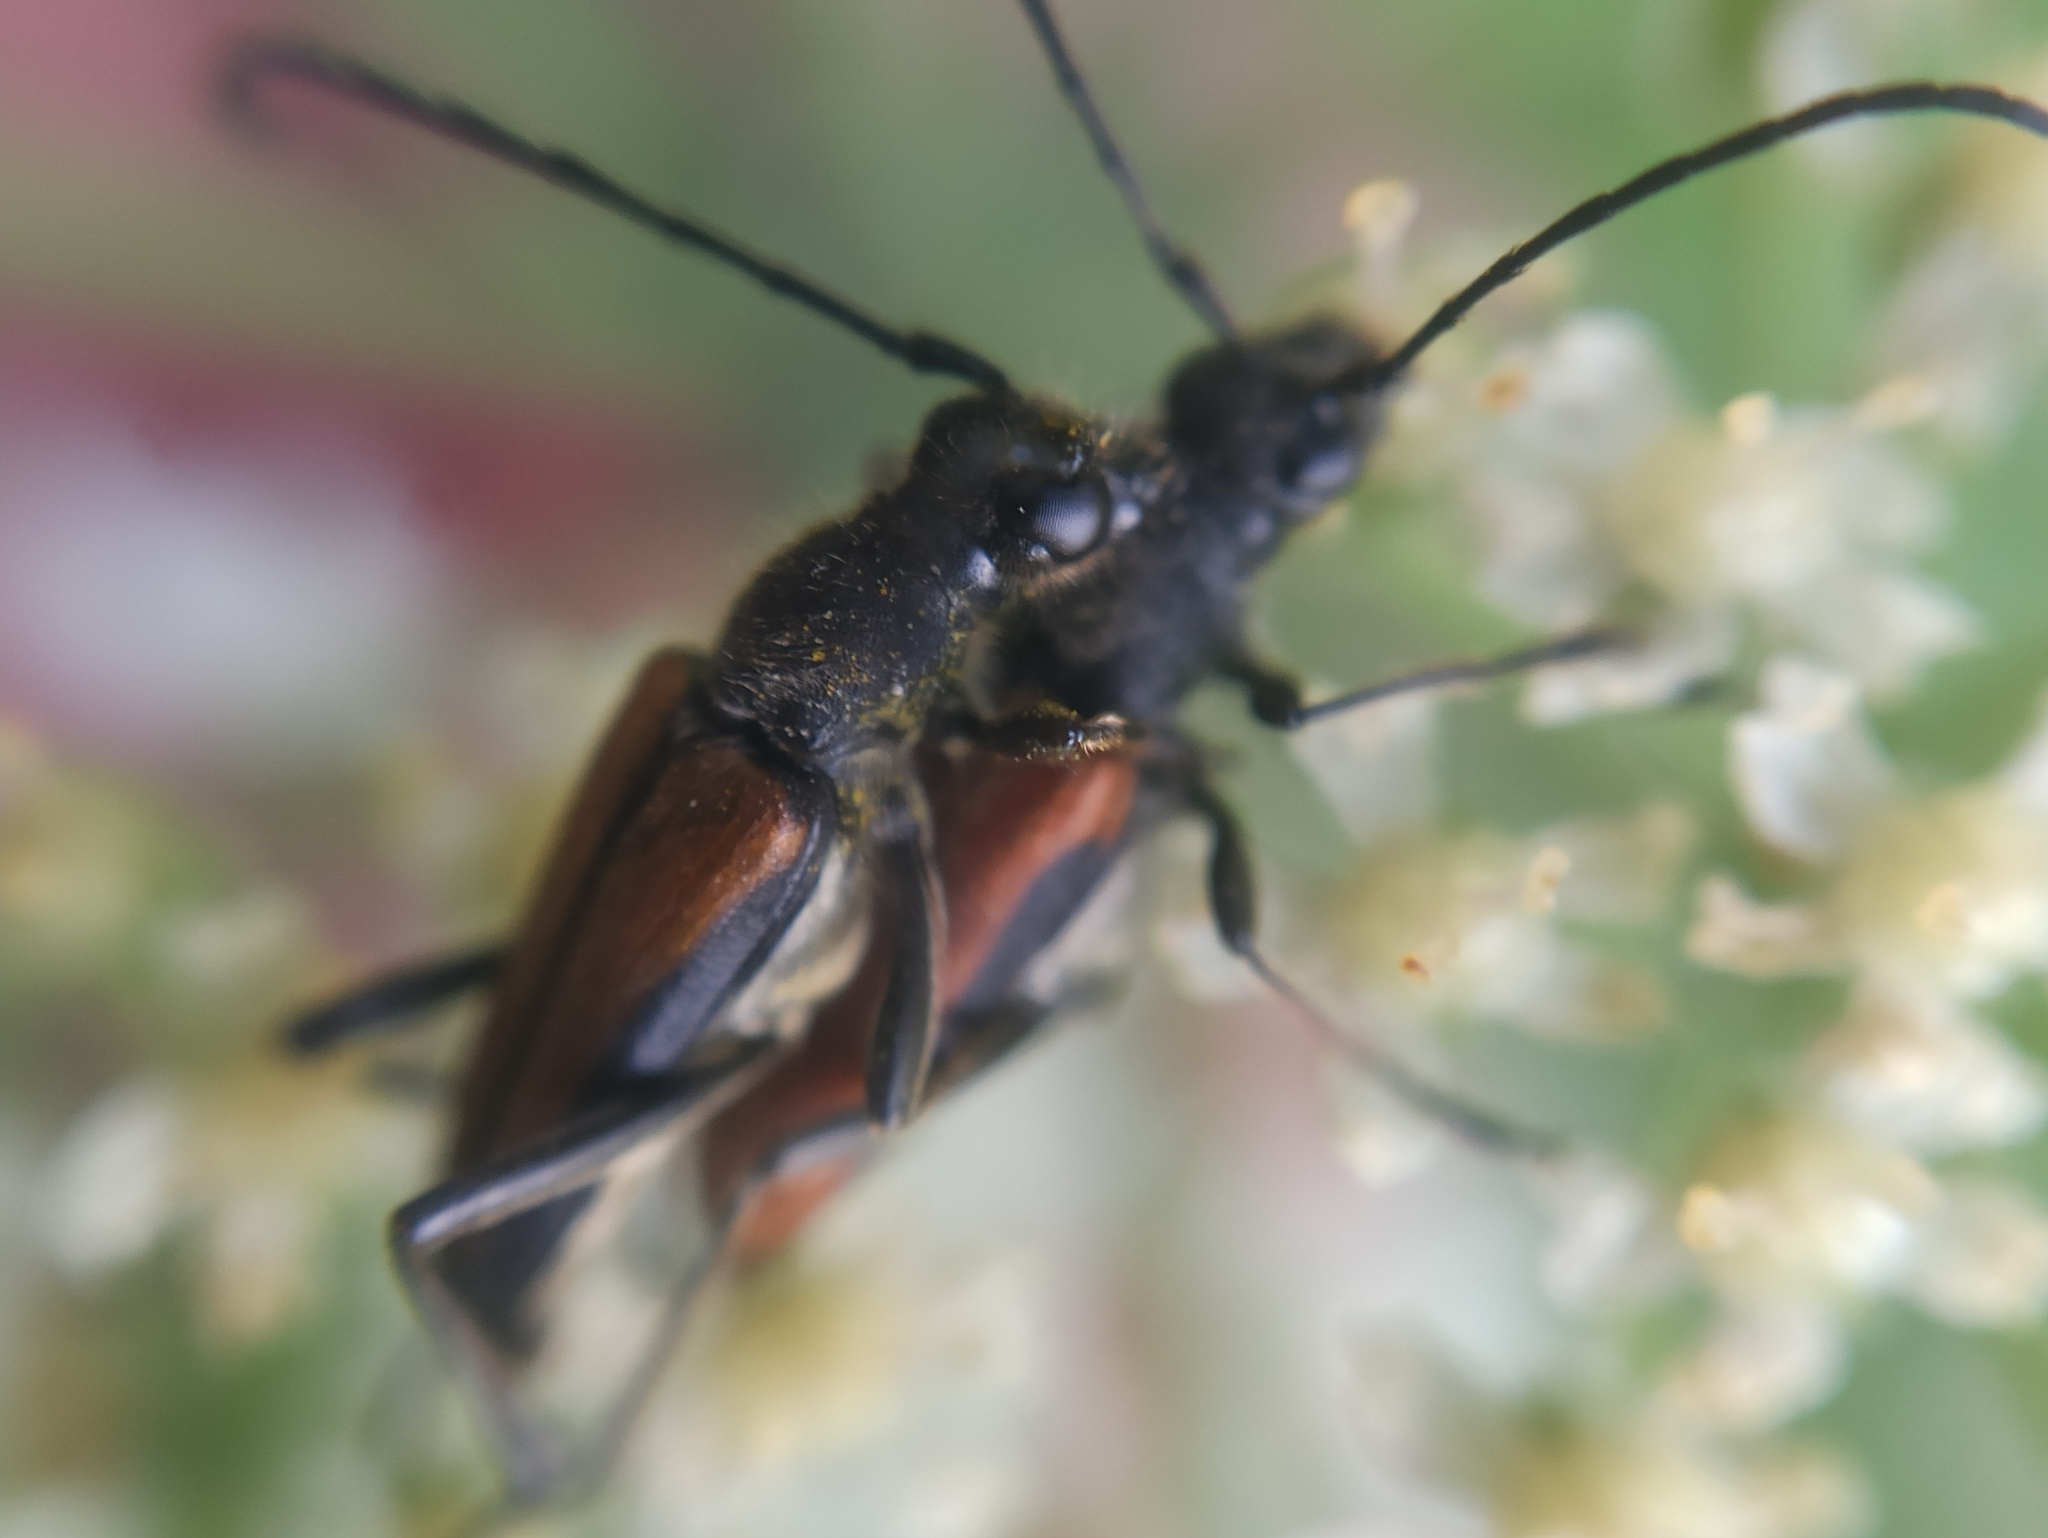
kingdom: Animalia
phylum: Arthropoda
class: Insecta
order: Coleoptera
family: Cerambycidae
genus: Anastrangalia
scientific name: Anastrangalia dubia
